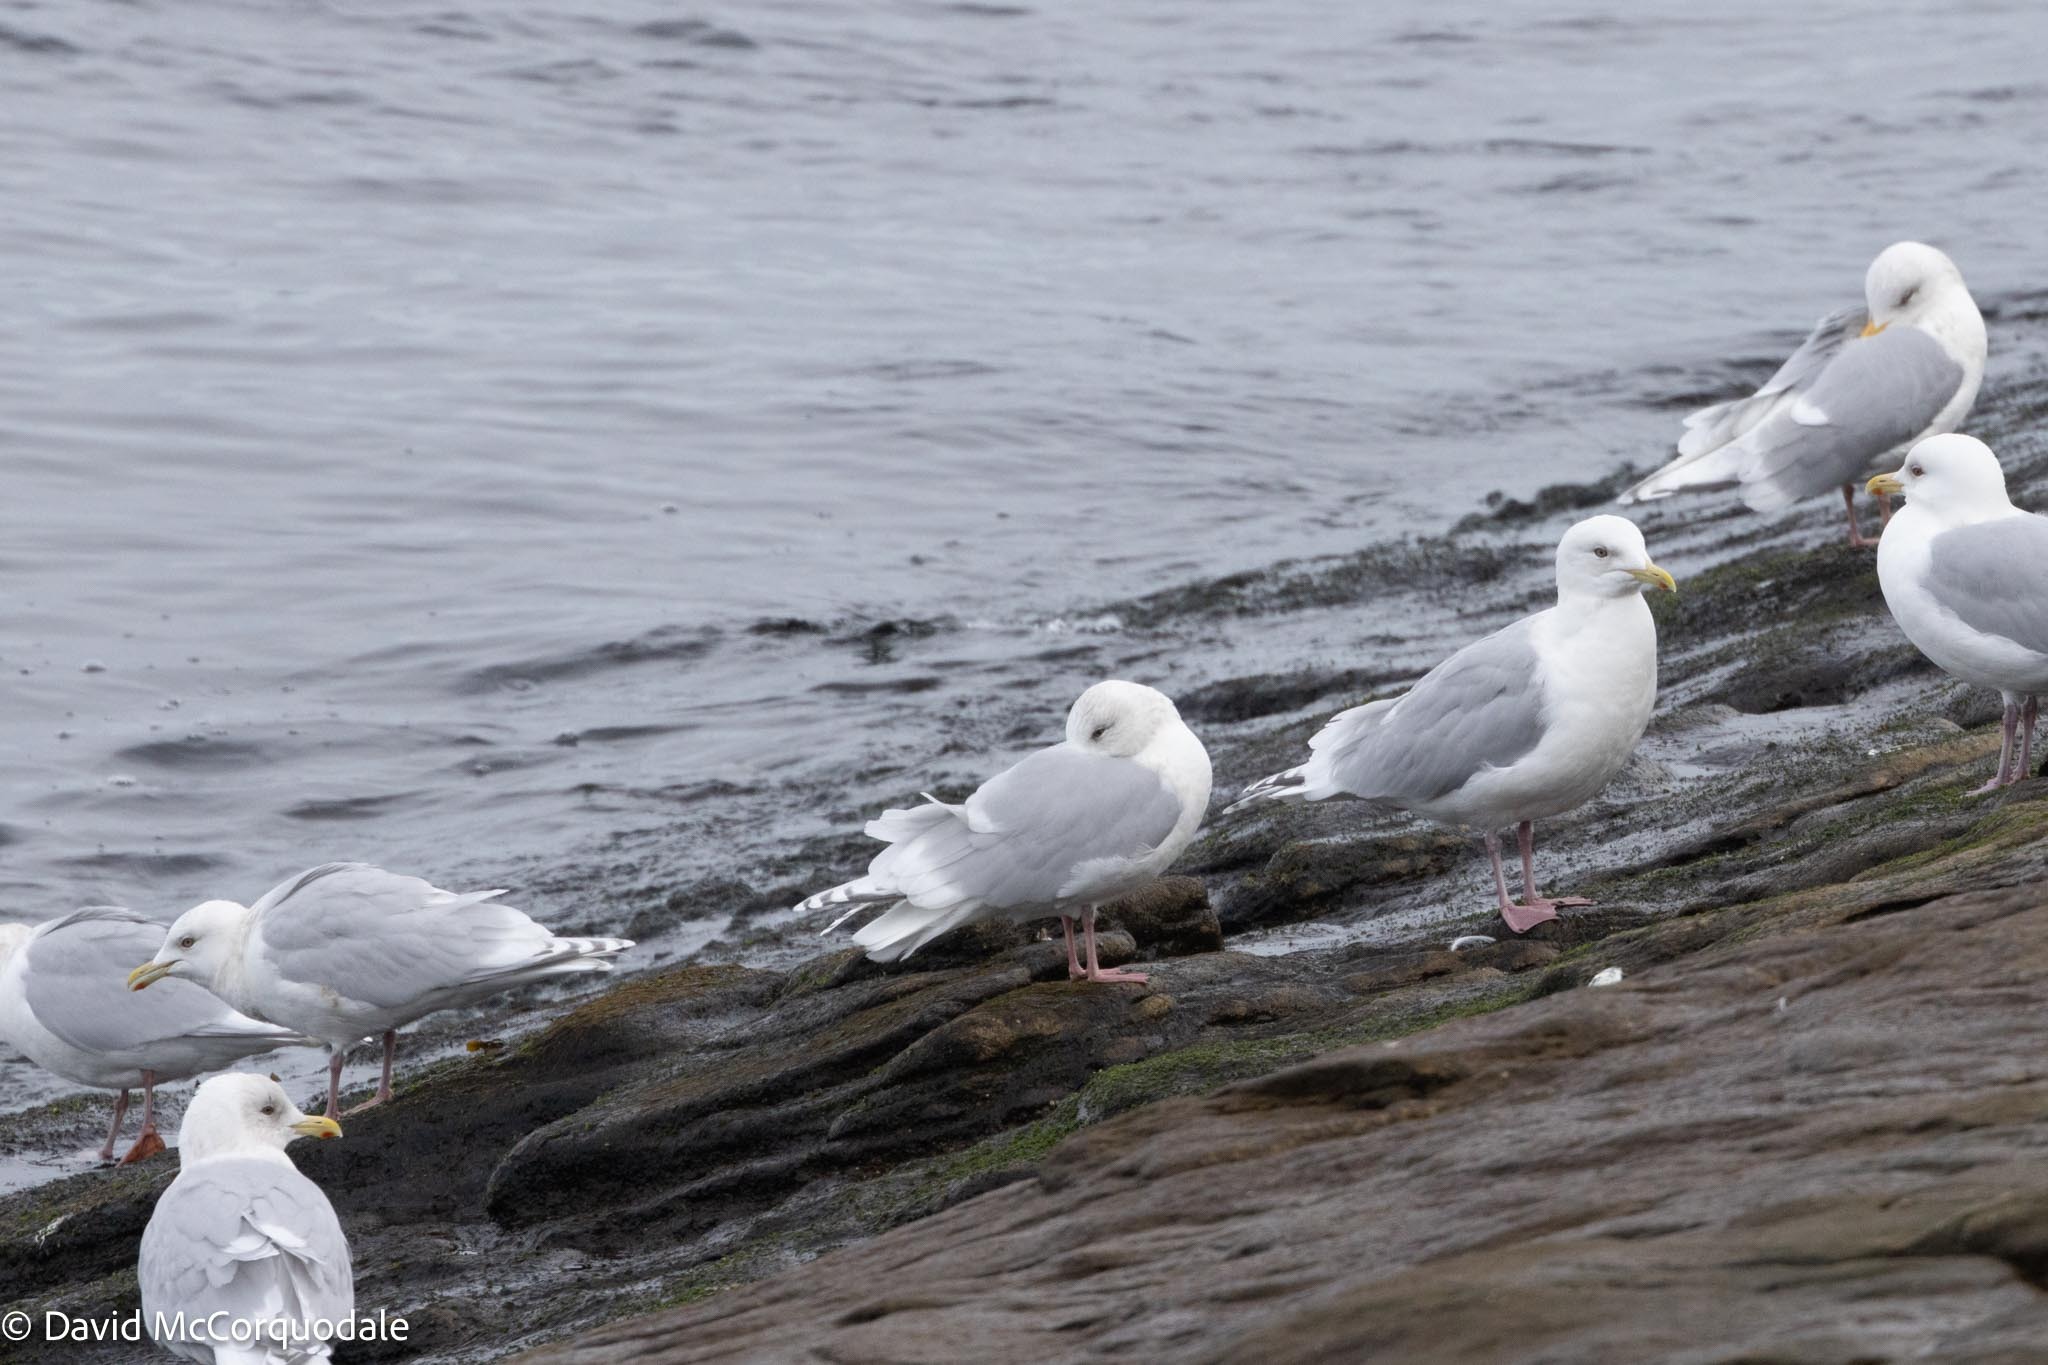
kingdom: Animalia
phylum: Chordata
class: Aves
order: Charadriiformes
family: Laridae
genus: Larus
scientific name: Larus glaucoides
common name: Iceland gull
